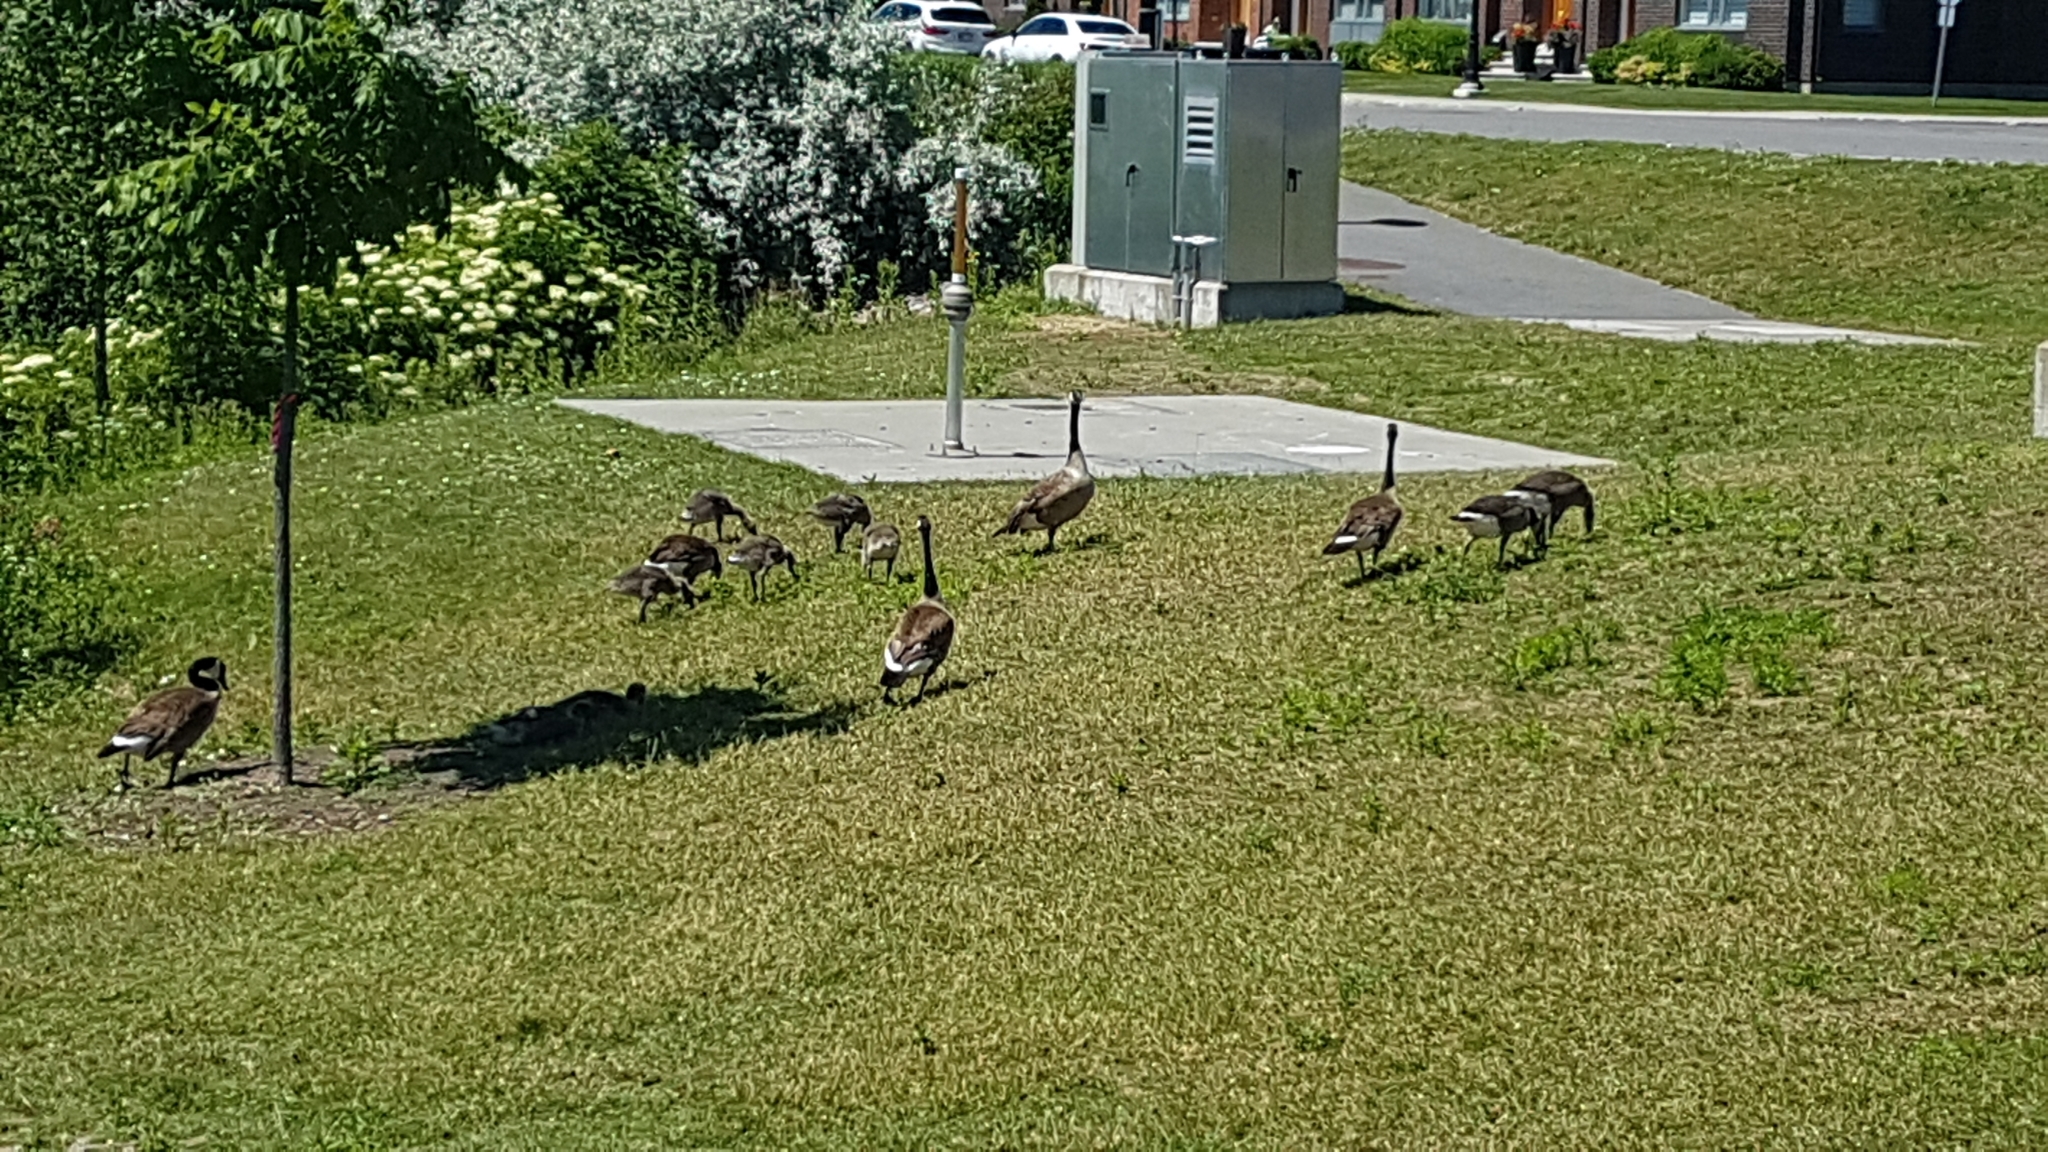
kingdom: Animalia
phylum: Chordata
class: Aves
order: Anseriformes
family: Anatidae
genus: Branta
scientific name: Branta canadensis
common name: Canada goose
